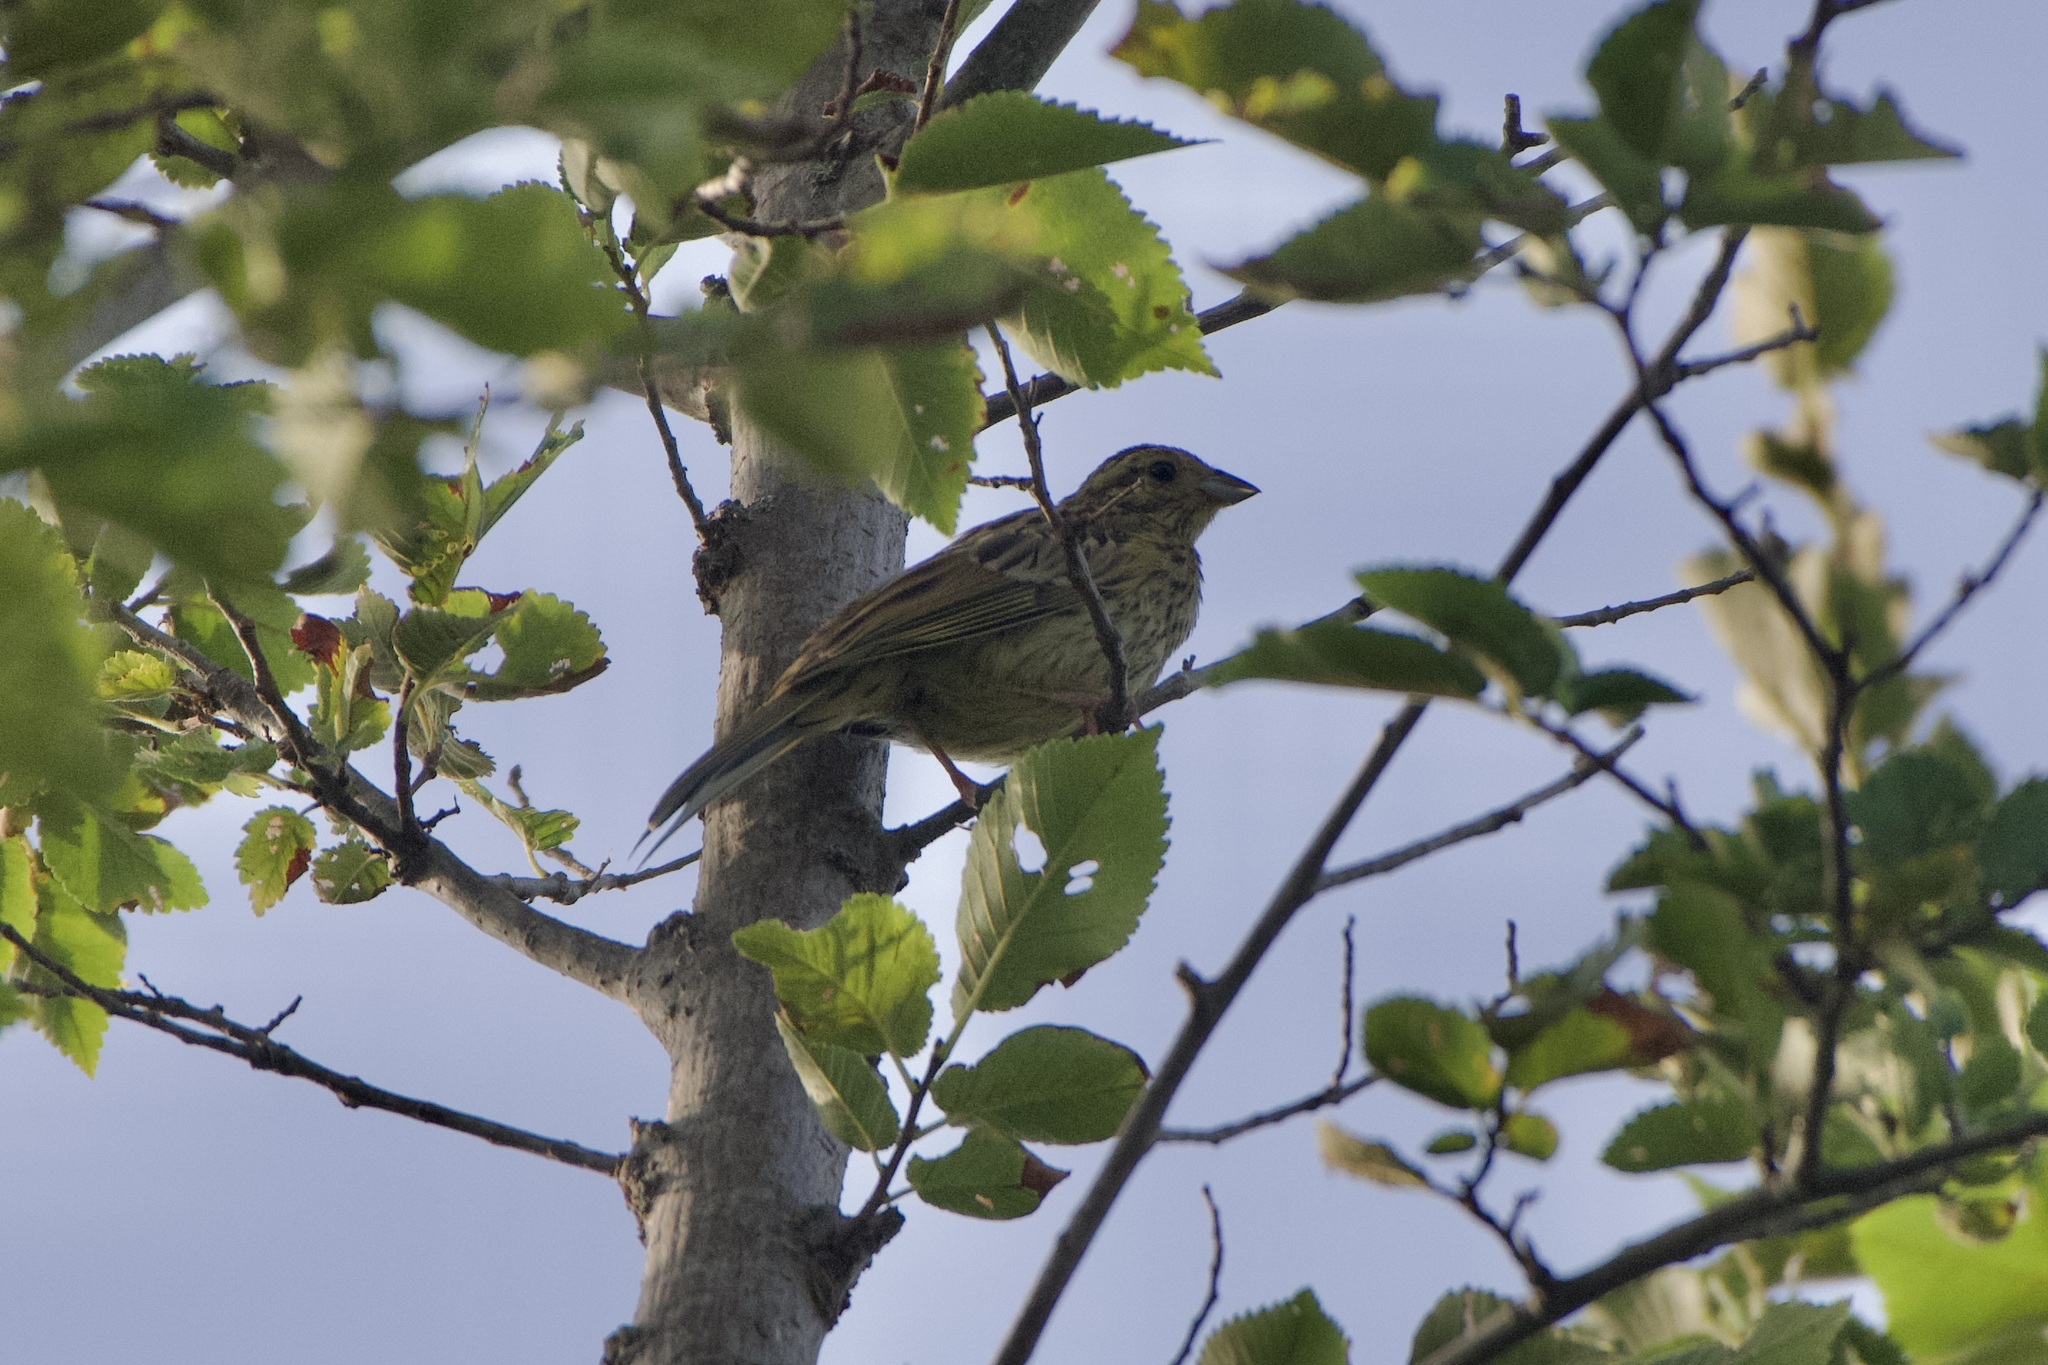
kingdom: Animalia
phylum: Chordata
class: Aves
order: Passeriformes
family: Emberizidae
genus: Emberiza
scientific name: Emberiza cirlus
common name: Cirl bunting
